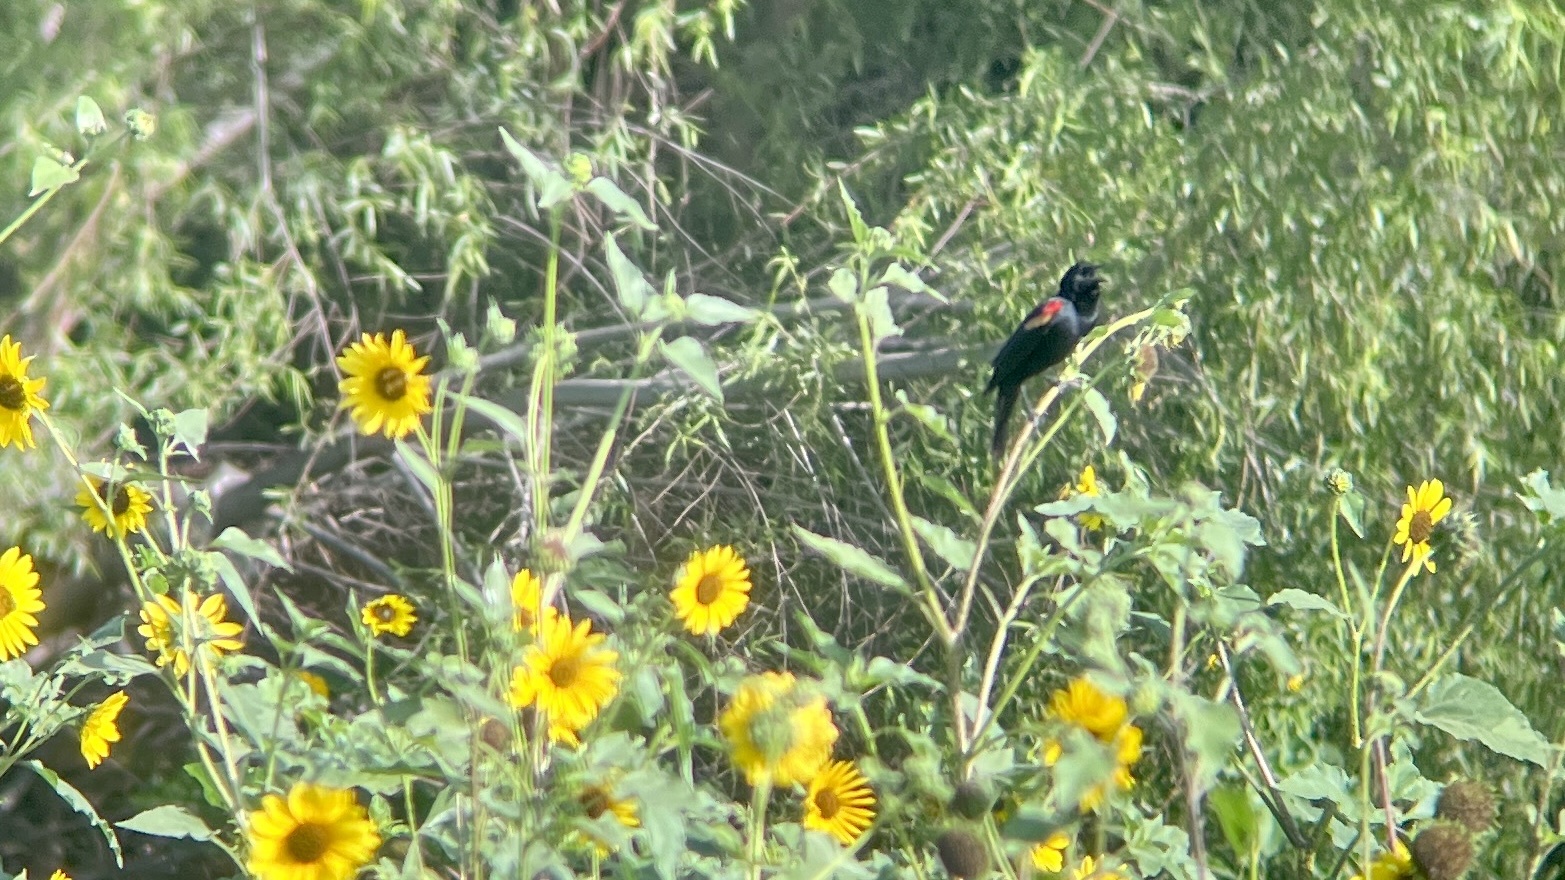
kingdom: Animalia
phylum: Chordata
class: Aves
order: Passeriformes
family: Icteridae
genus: Agelaius
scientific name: Agelaius phoeniceus
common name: Red-winged blackbird
